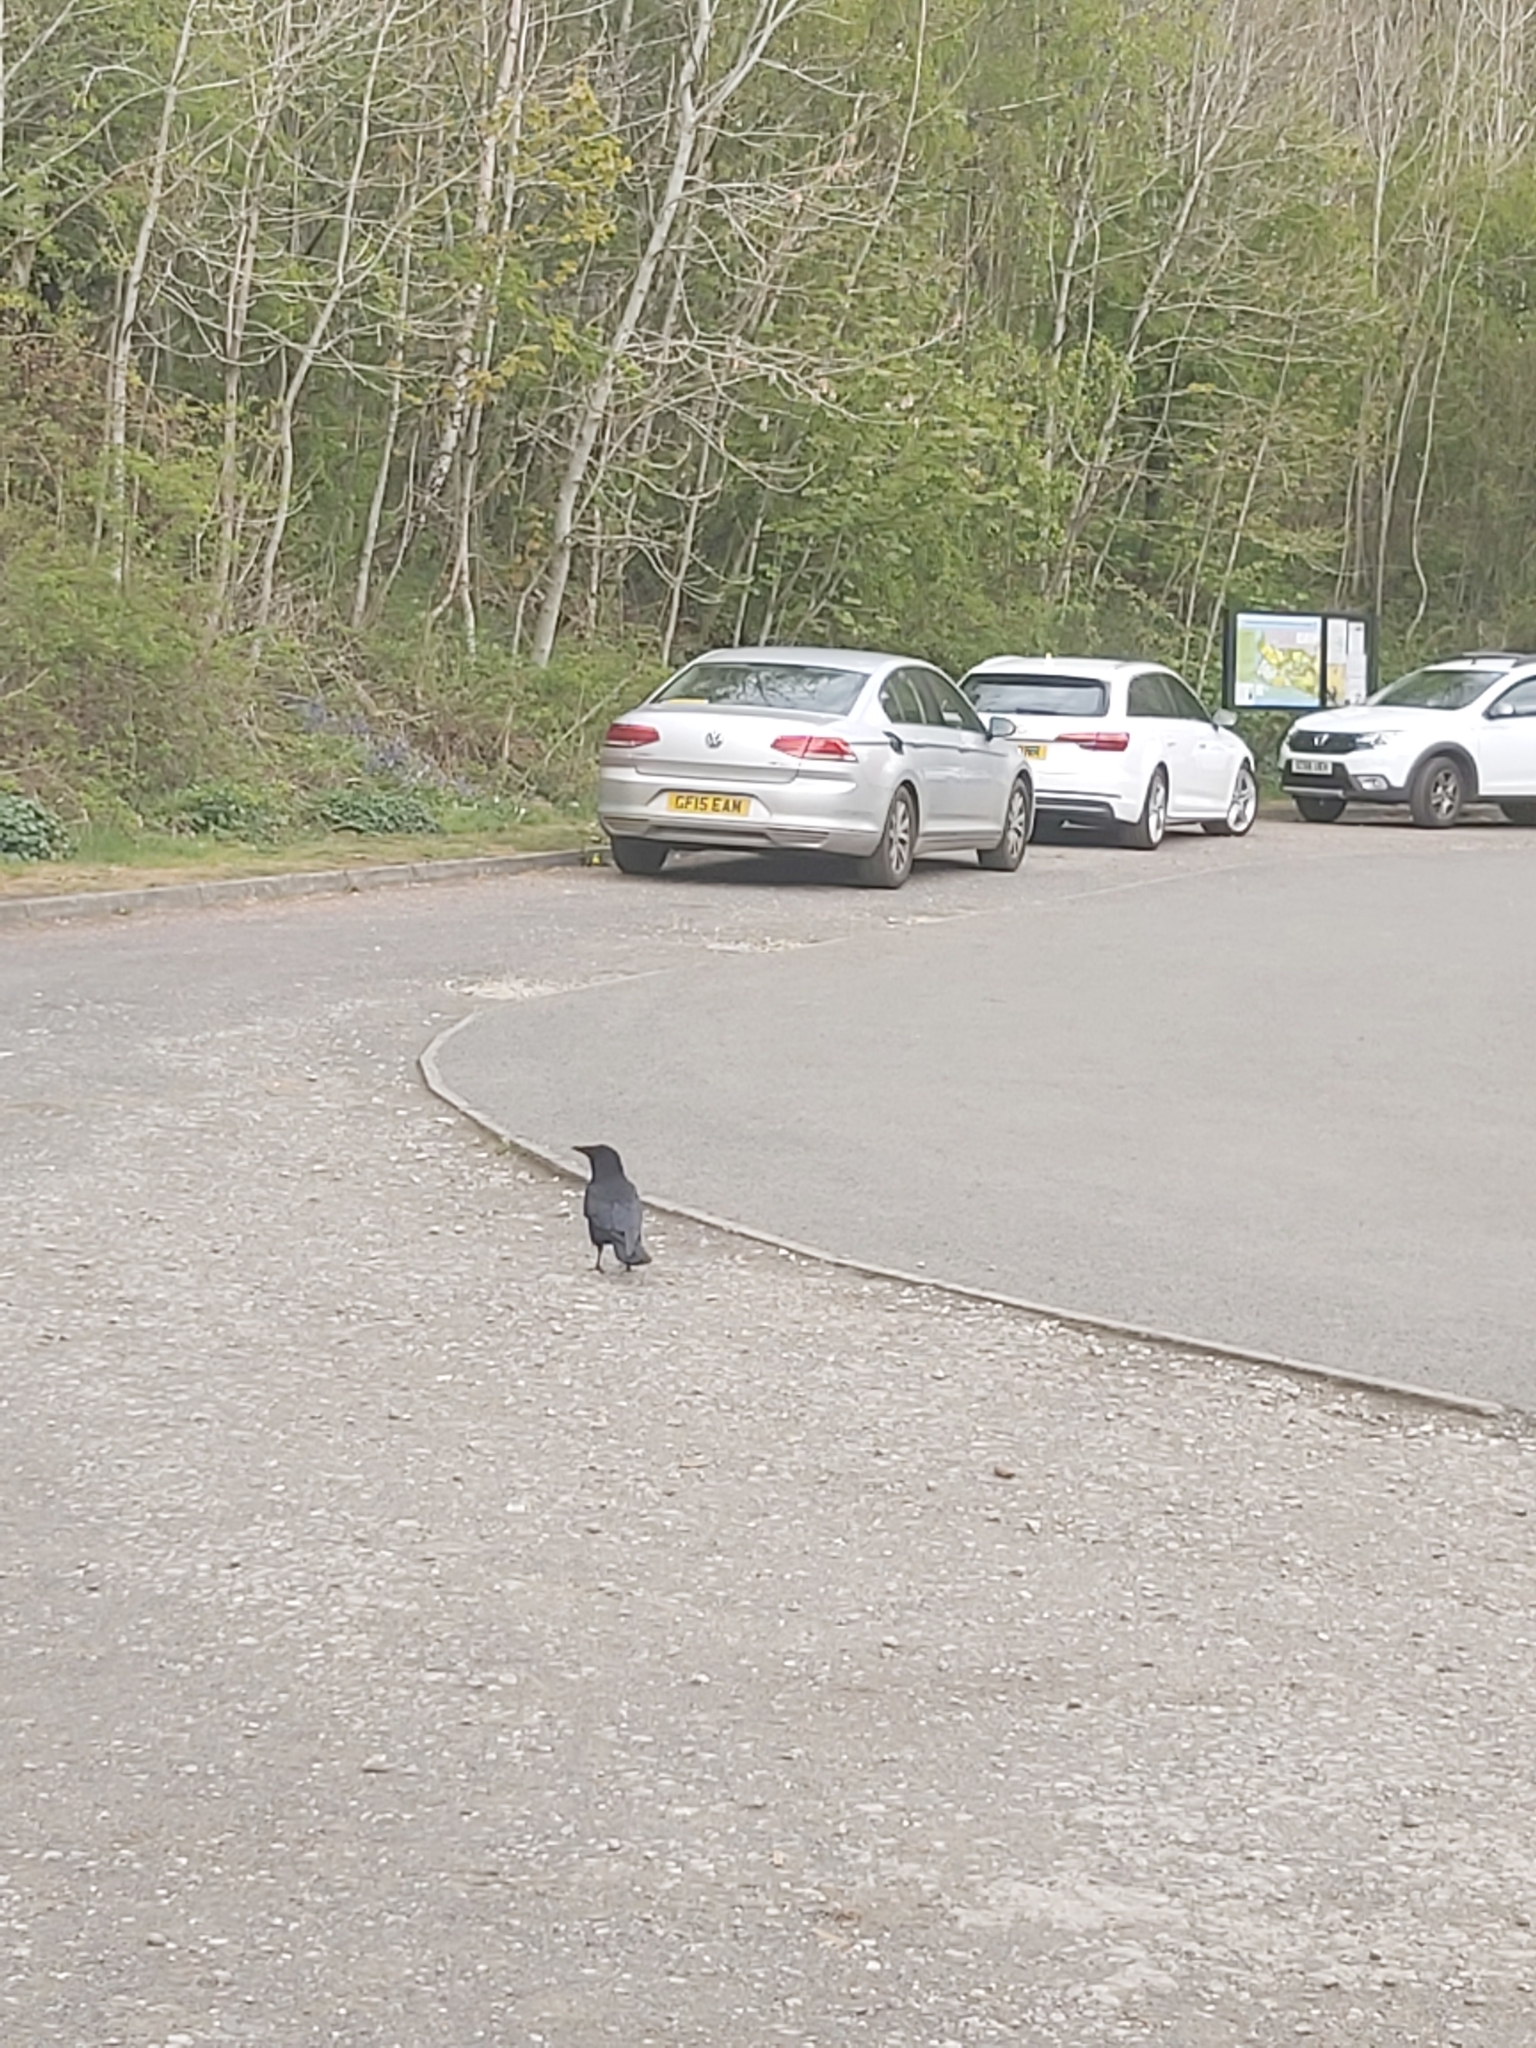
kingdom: Animalia
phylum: Chordata
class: Aves
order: Passeriformes
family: Corvidae
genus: Corvus
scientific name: Corvus corone
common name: Carrion crow
